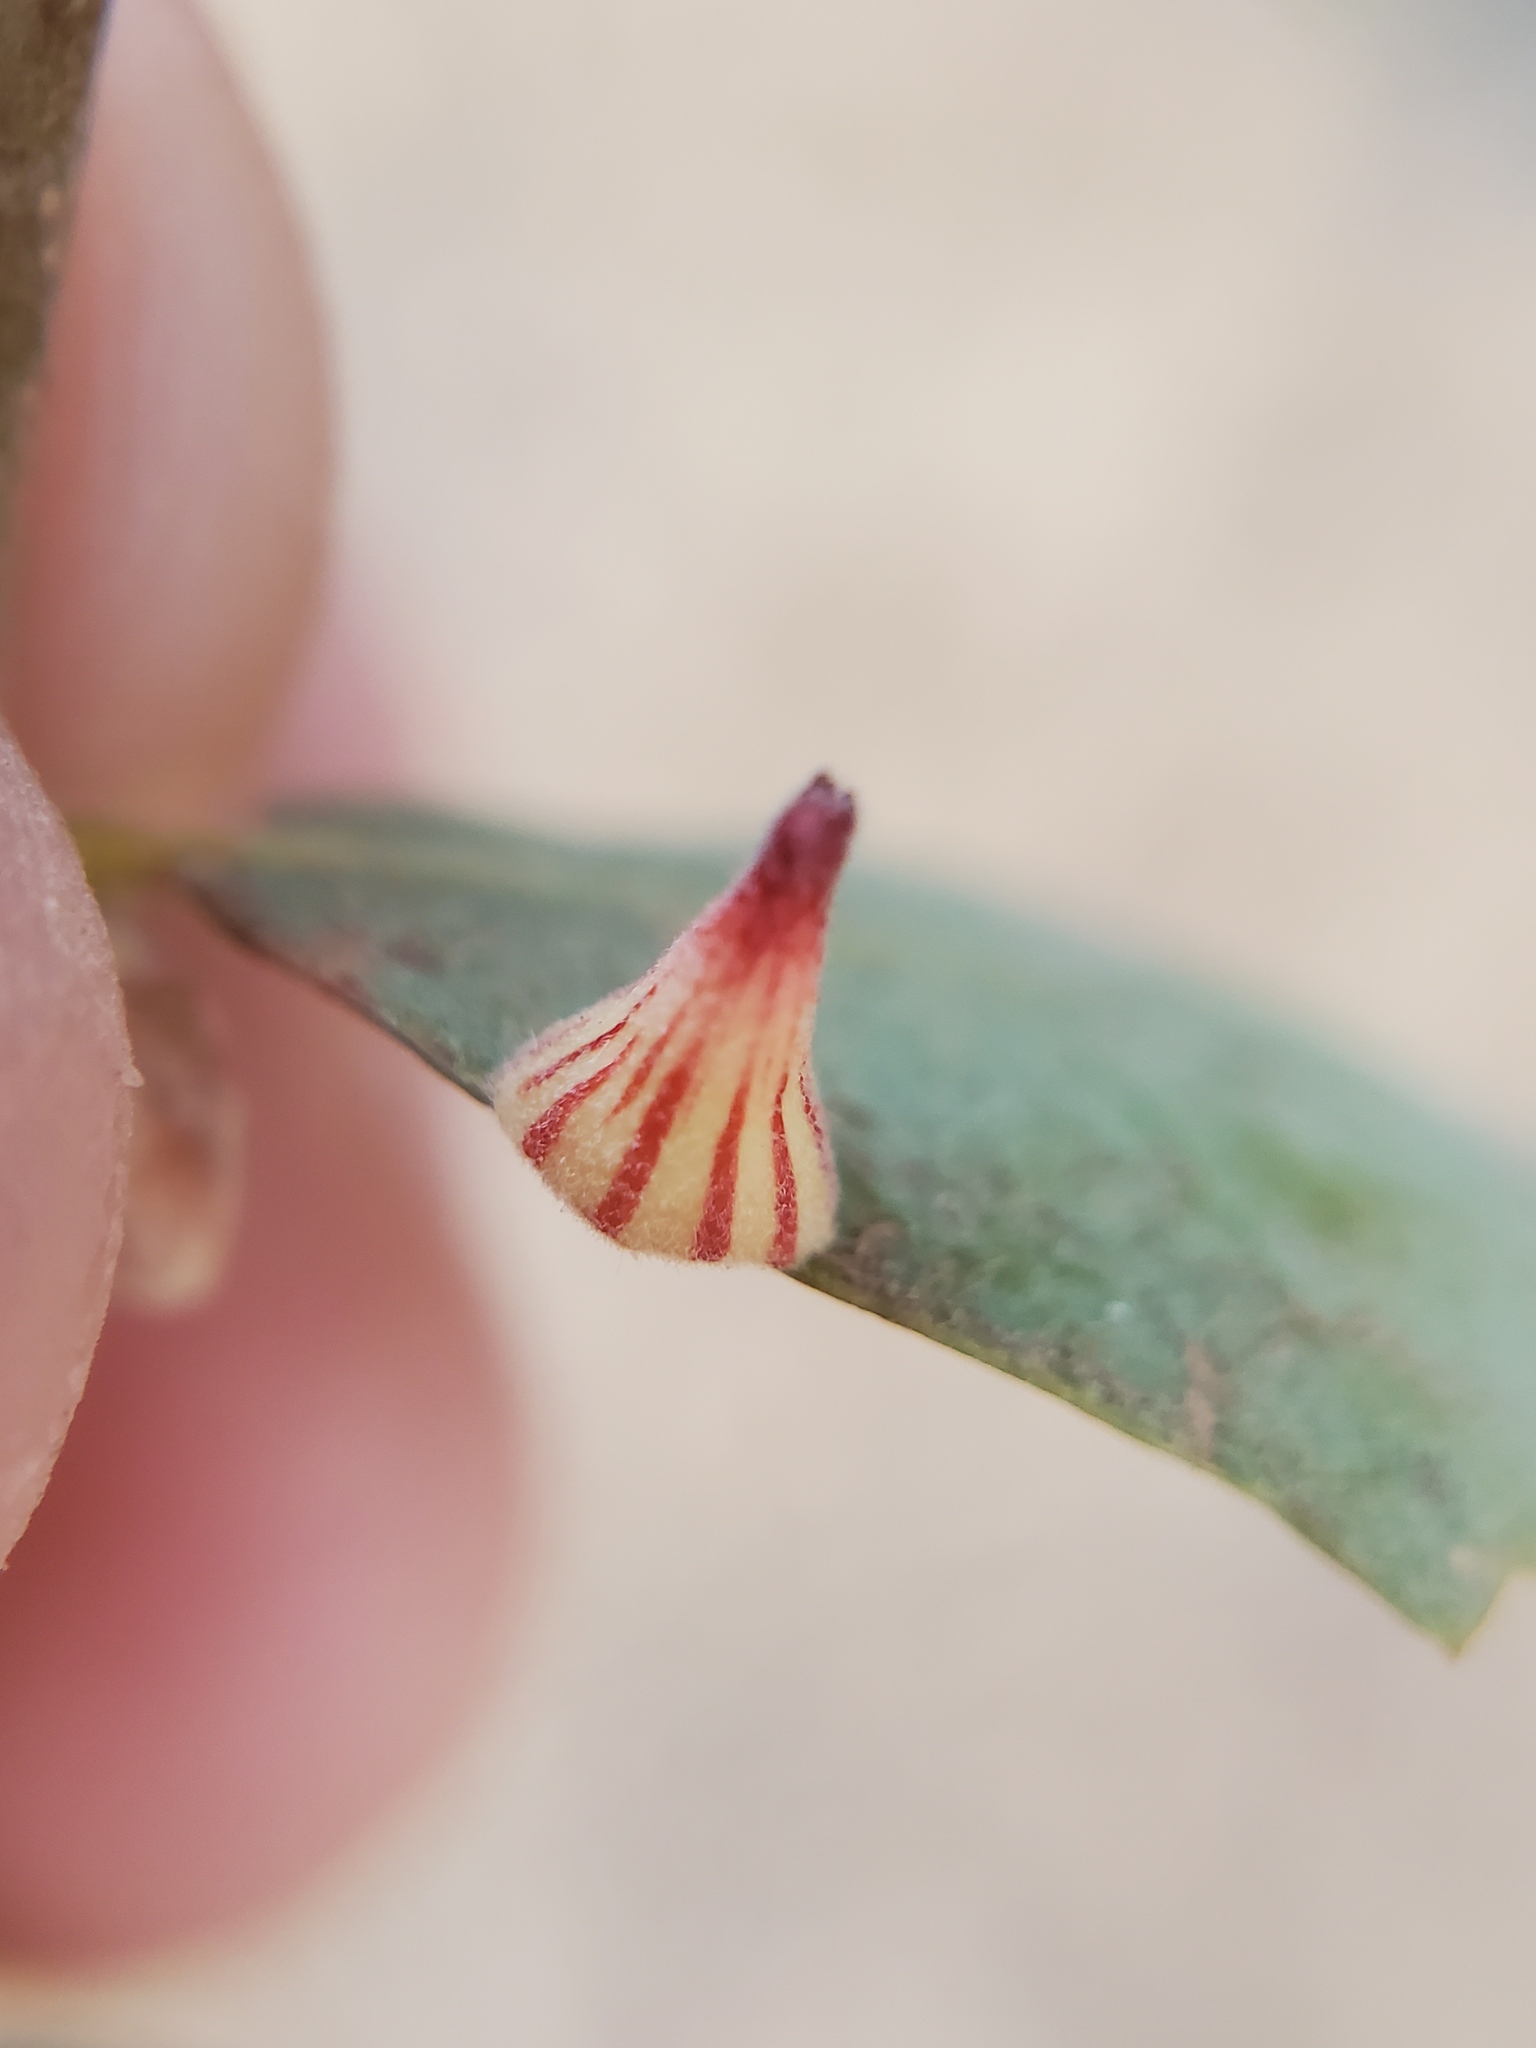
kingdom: Animalia
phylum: Arthropoda
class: Insecta
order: Hymenoptera
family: Cynipidae
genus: Andricus
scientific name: Andricus
